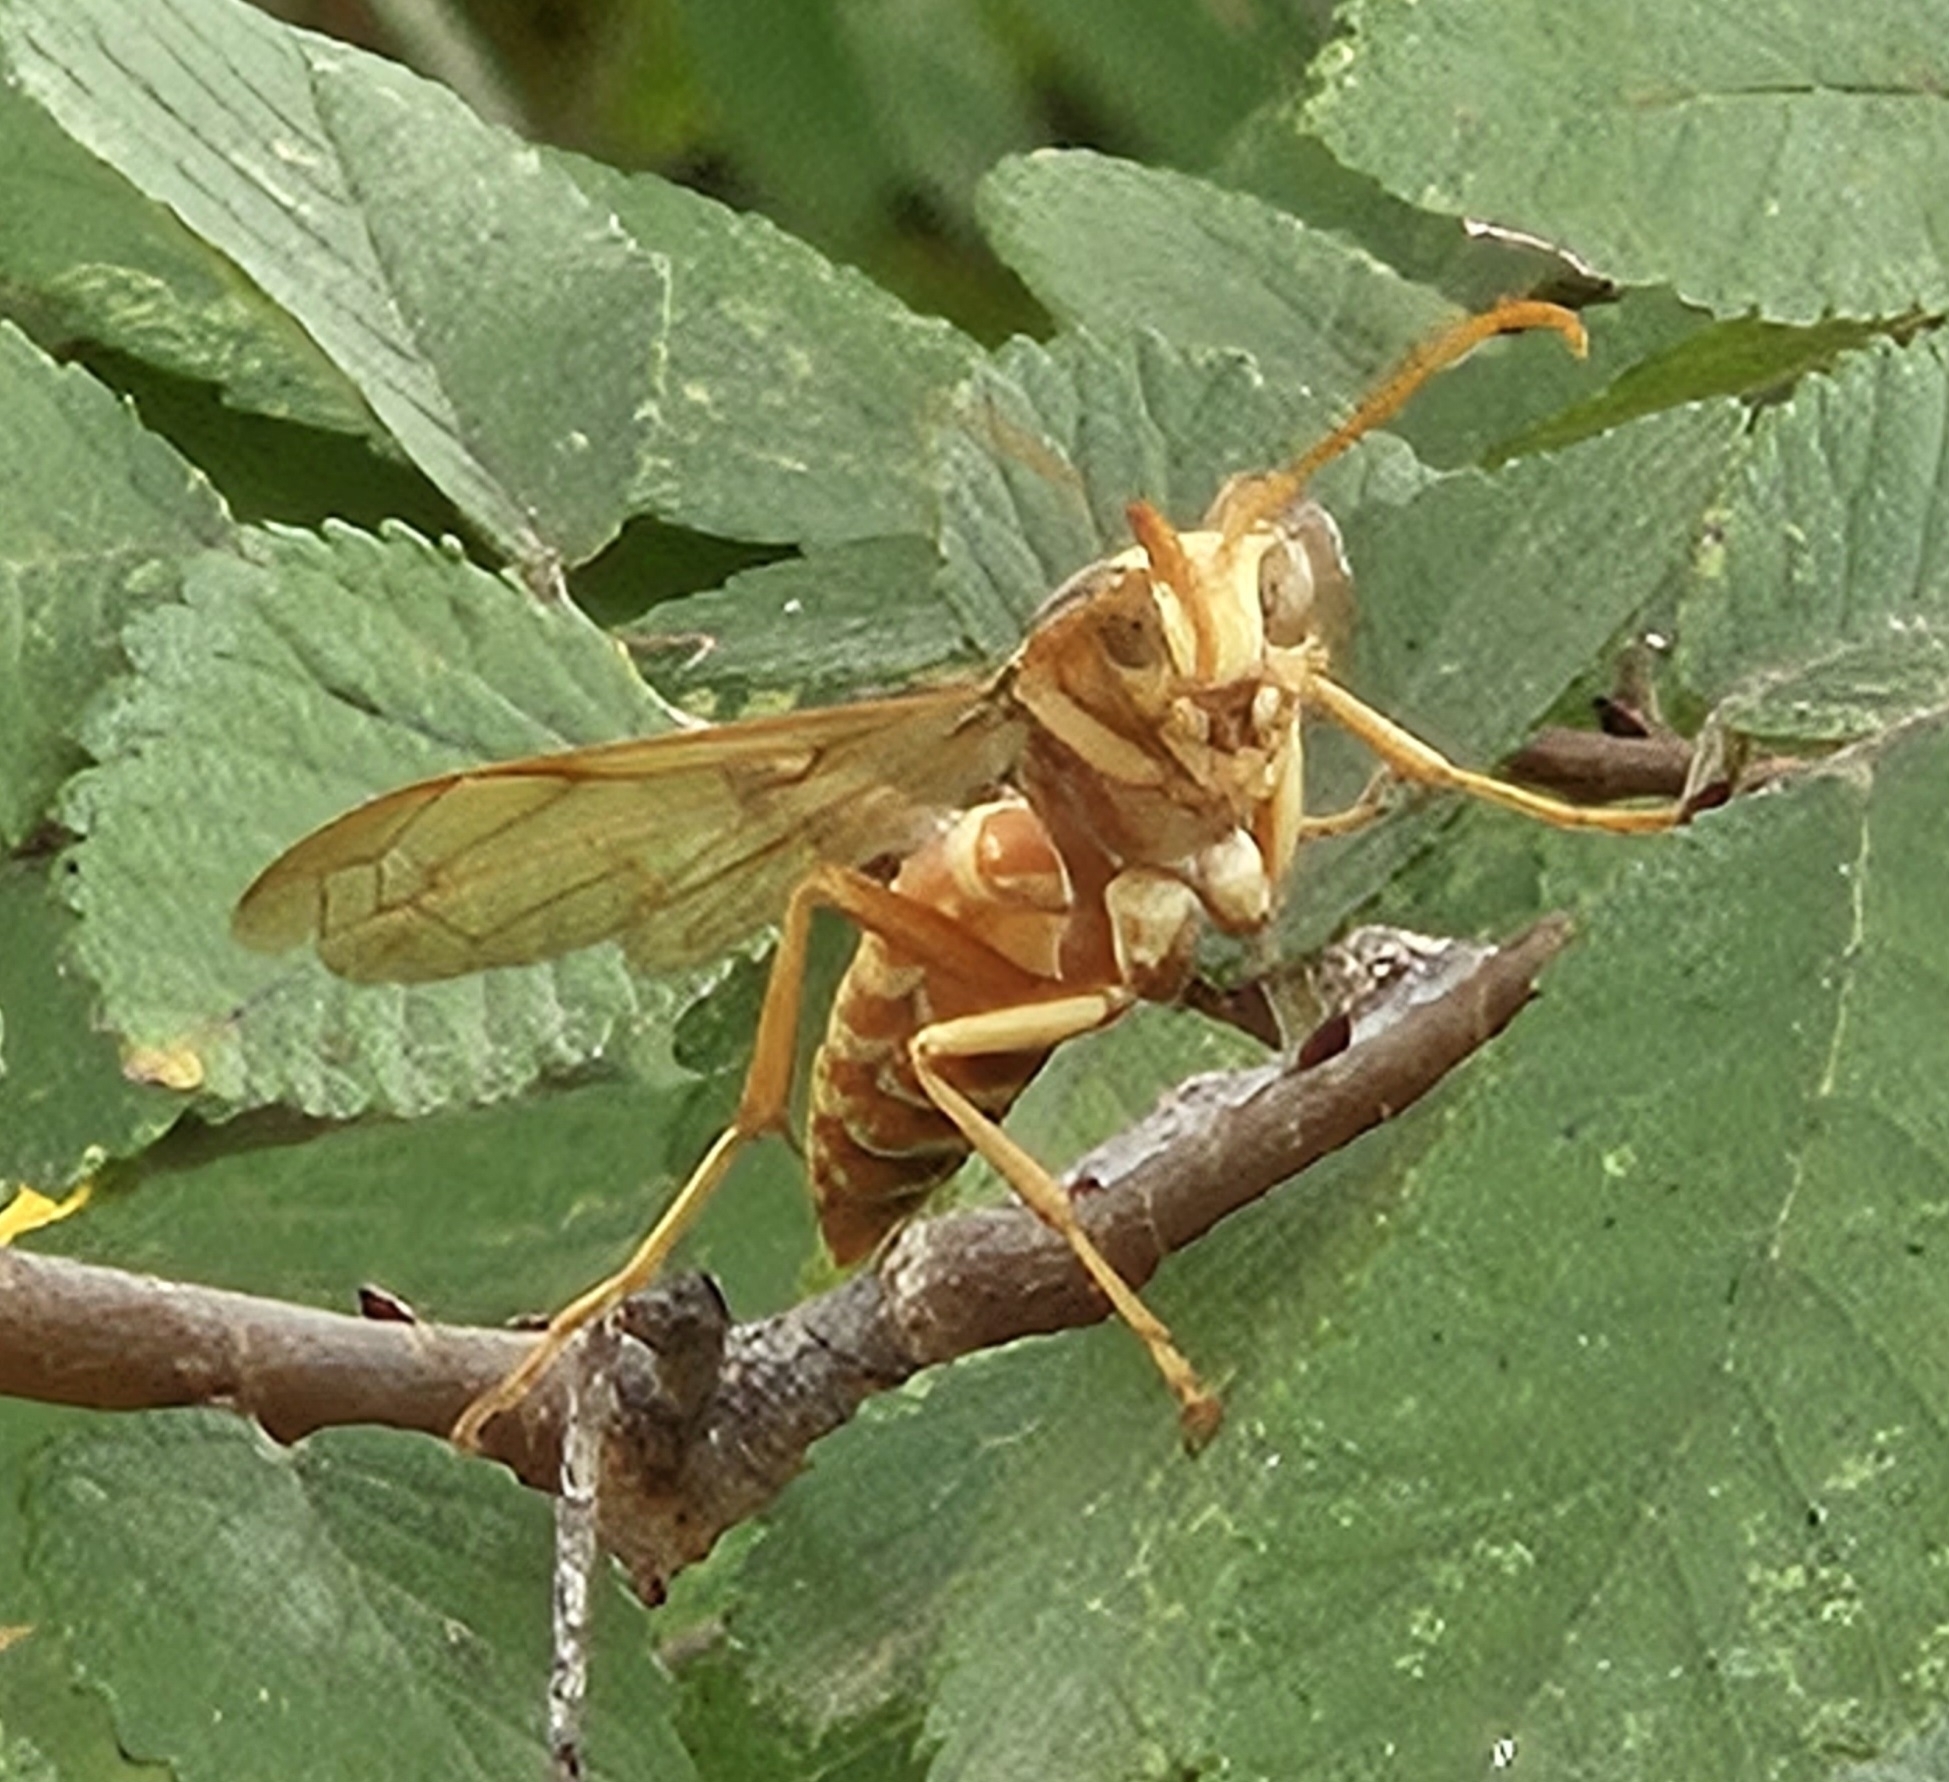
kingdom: Animalia
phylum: Arthropoda
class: Insecta
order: Hymenoptera
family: Eumenidae
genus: Polistes
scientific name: Polistes apachus
